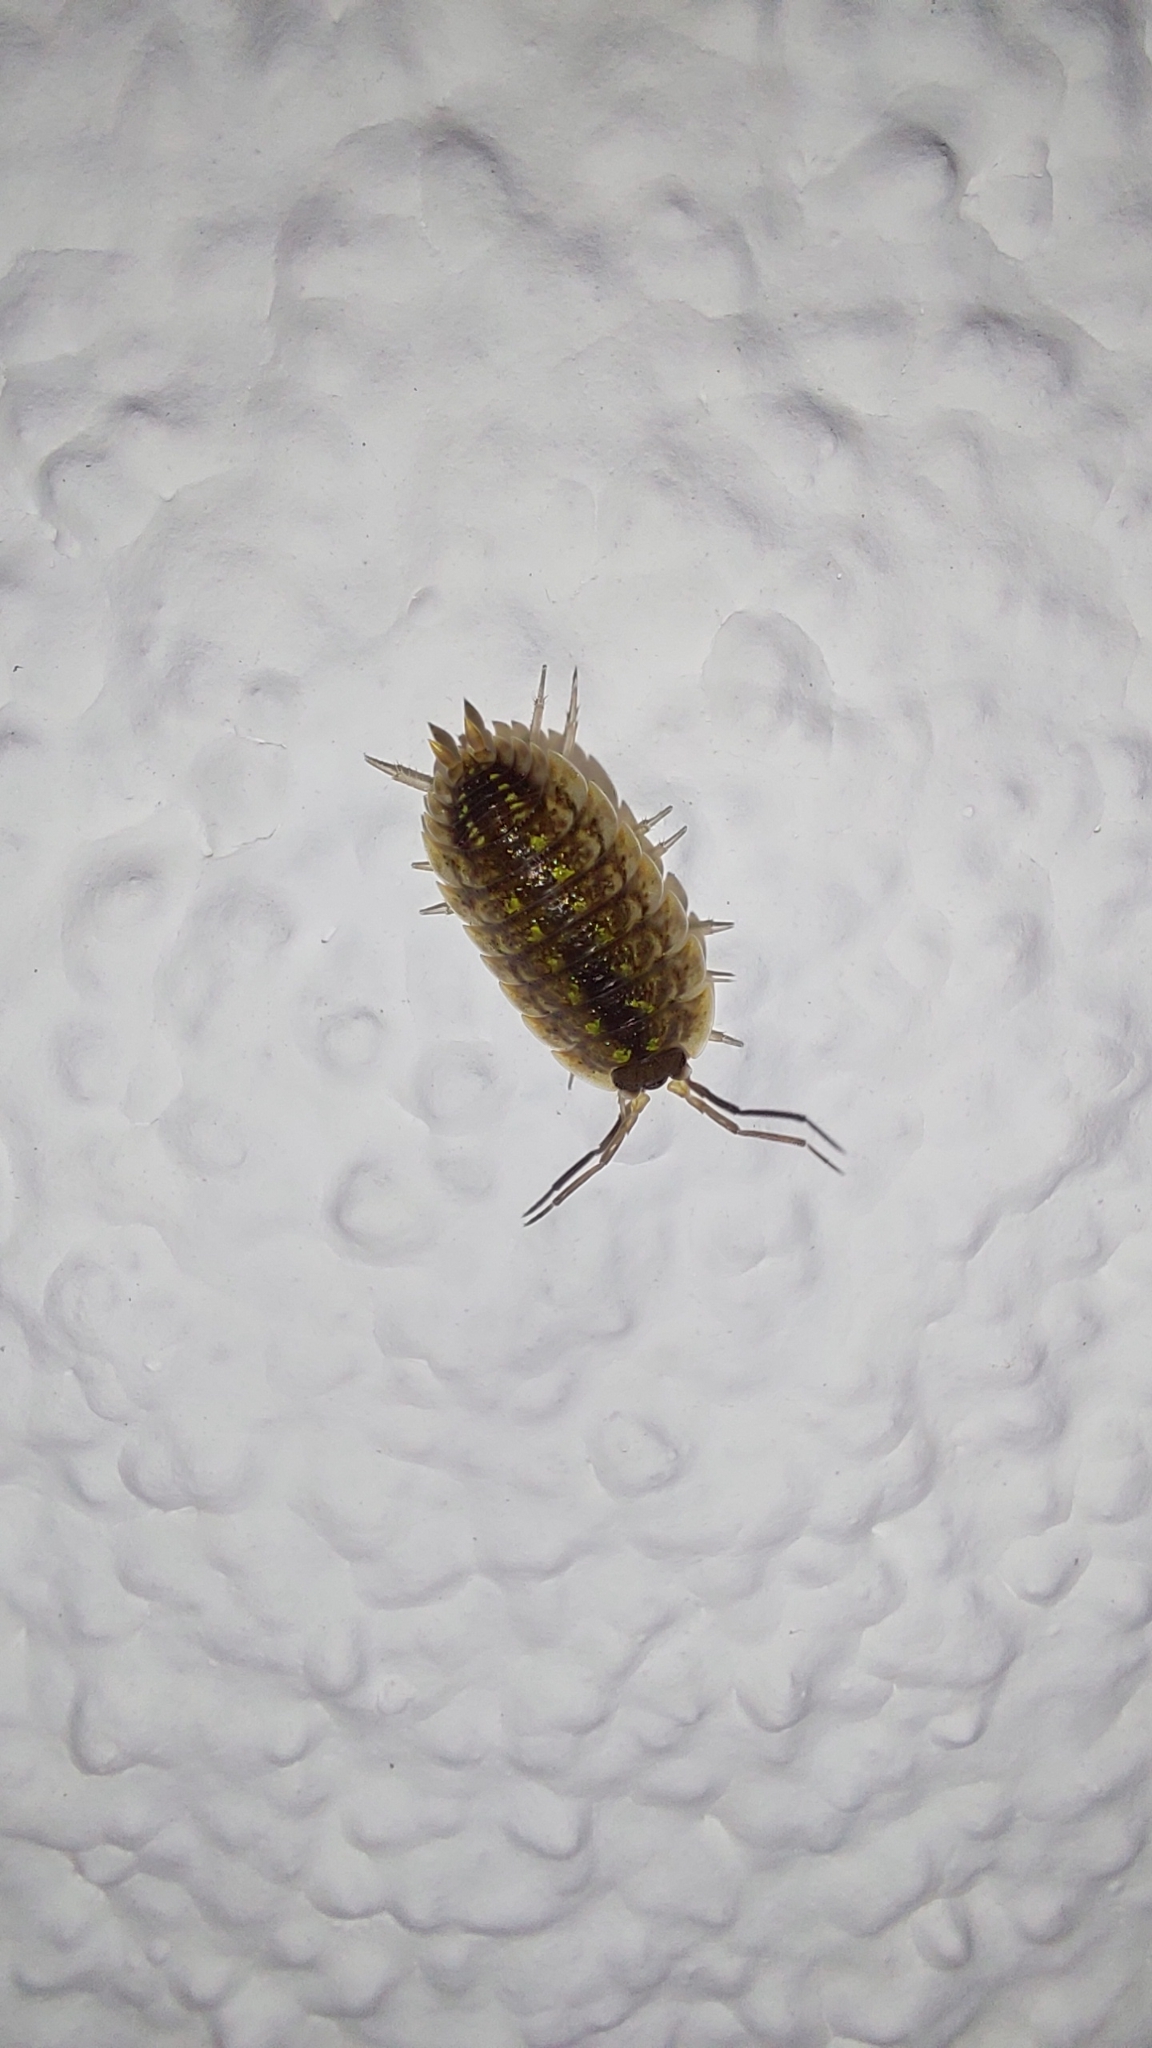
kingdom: Animalia
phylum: Arthropoda
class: Malacostraca
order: Isopoda
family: Porcellionidae
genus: Porcellio
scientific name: Porcellio spinicornis
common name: Painted woodlouse
